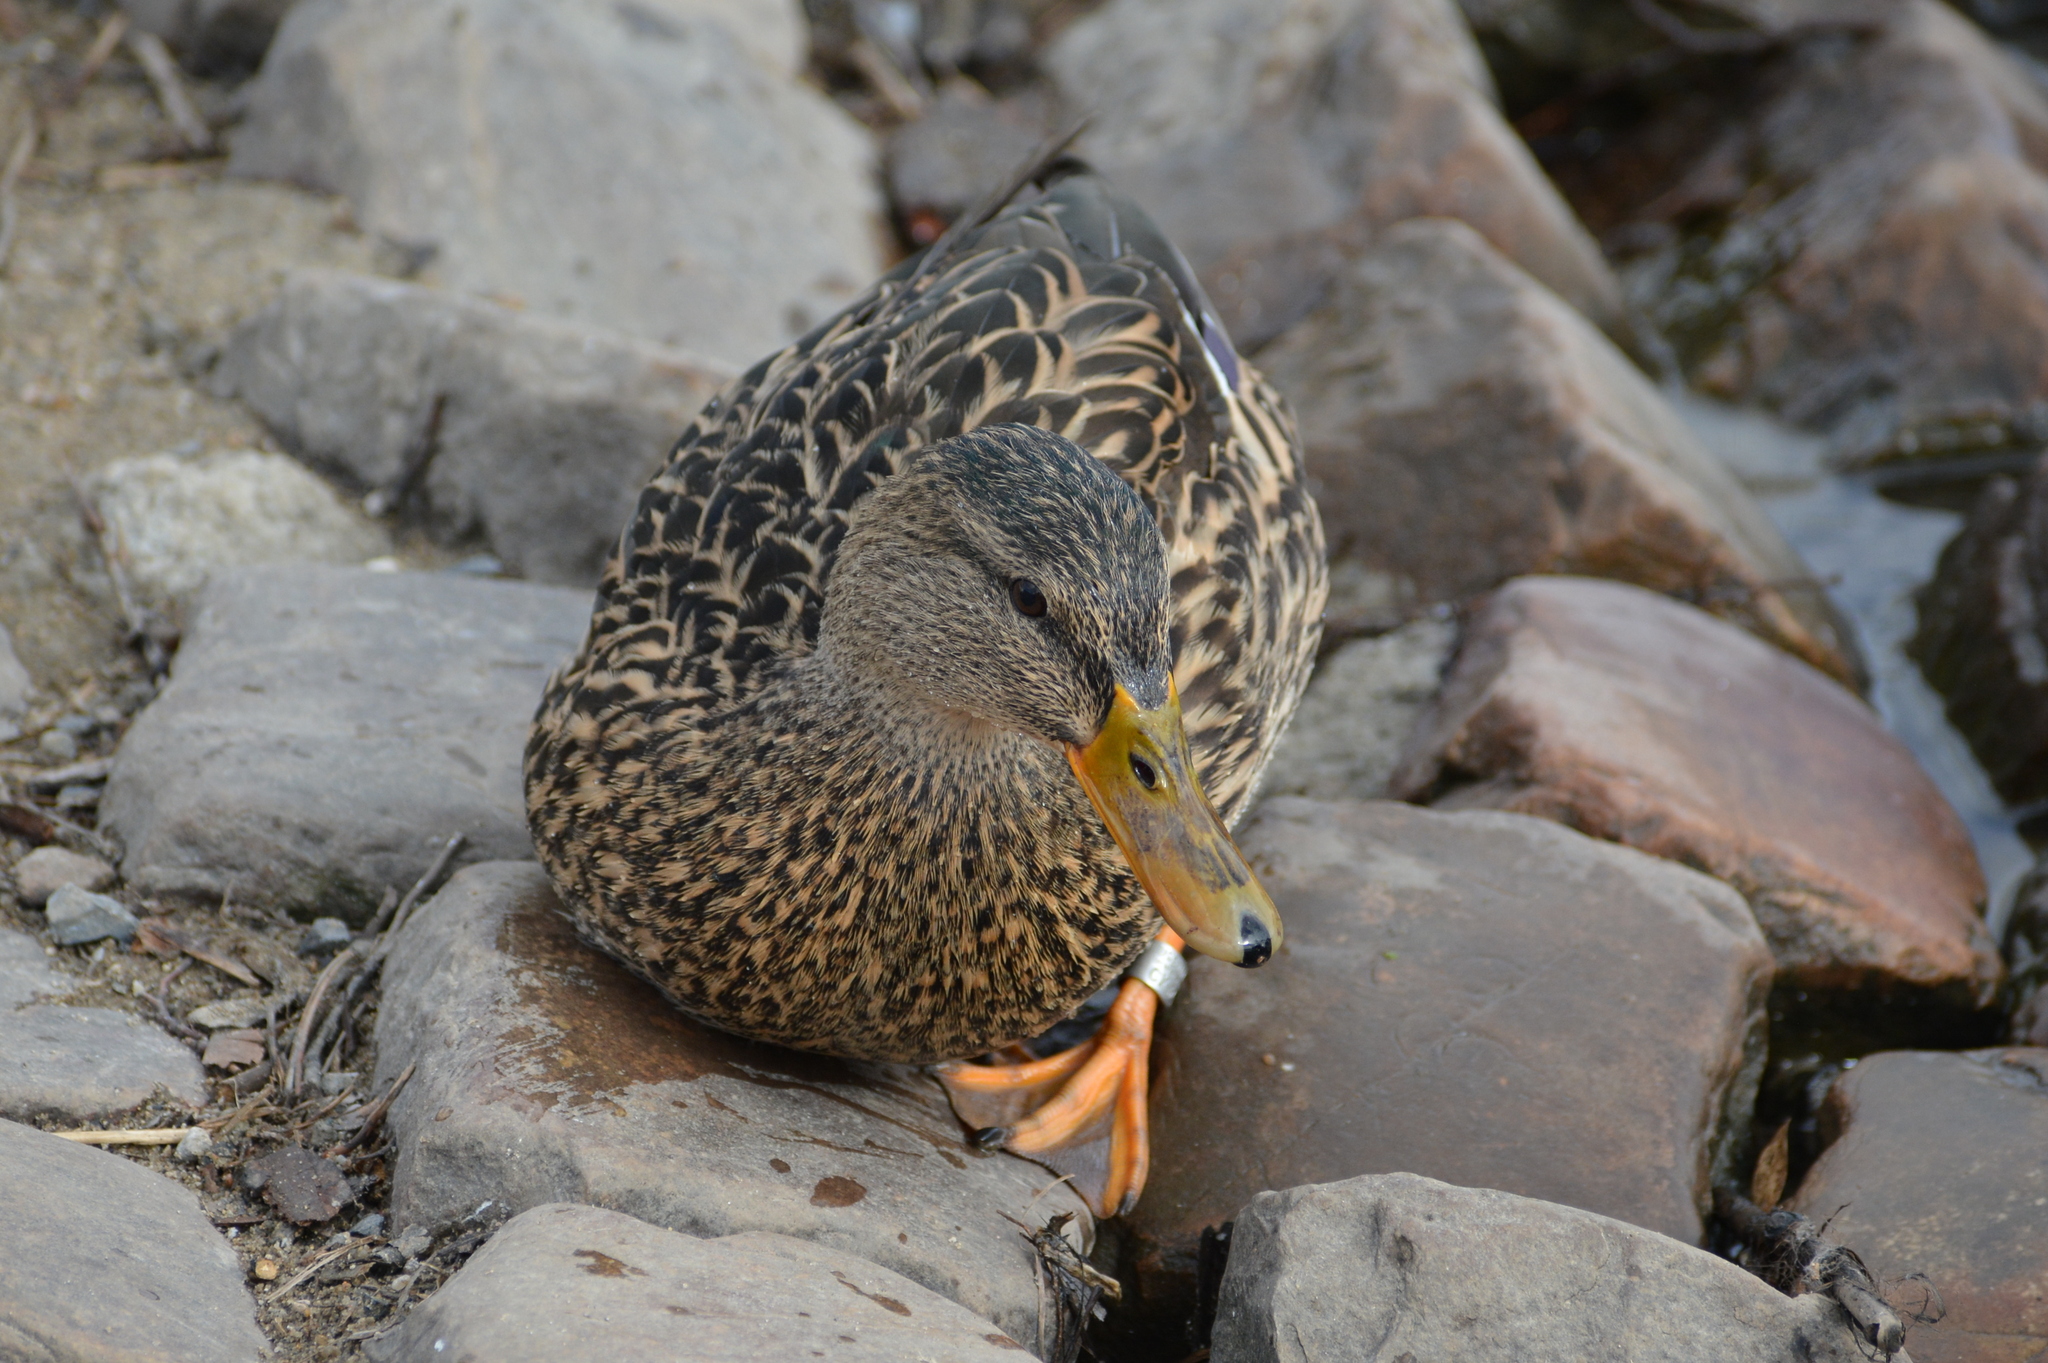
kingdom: Animalia
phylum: Chordata
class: Aves
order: Anseriformes
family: Anatidae
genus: Anas
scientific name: Anas platyrhynchos
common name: Mallard
